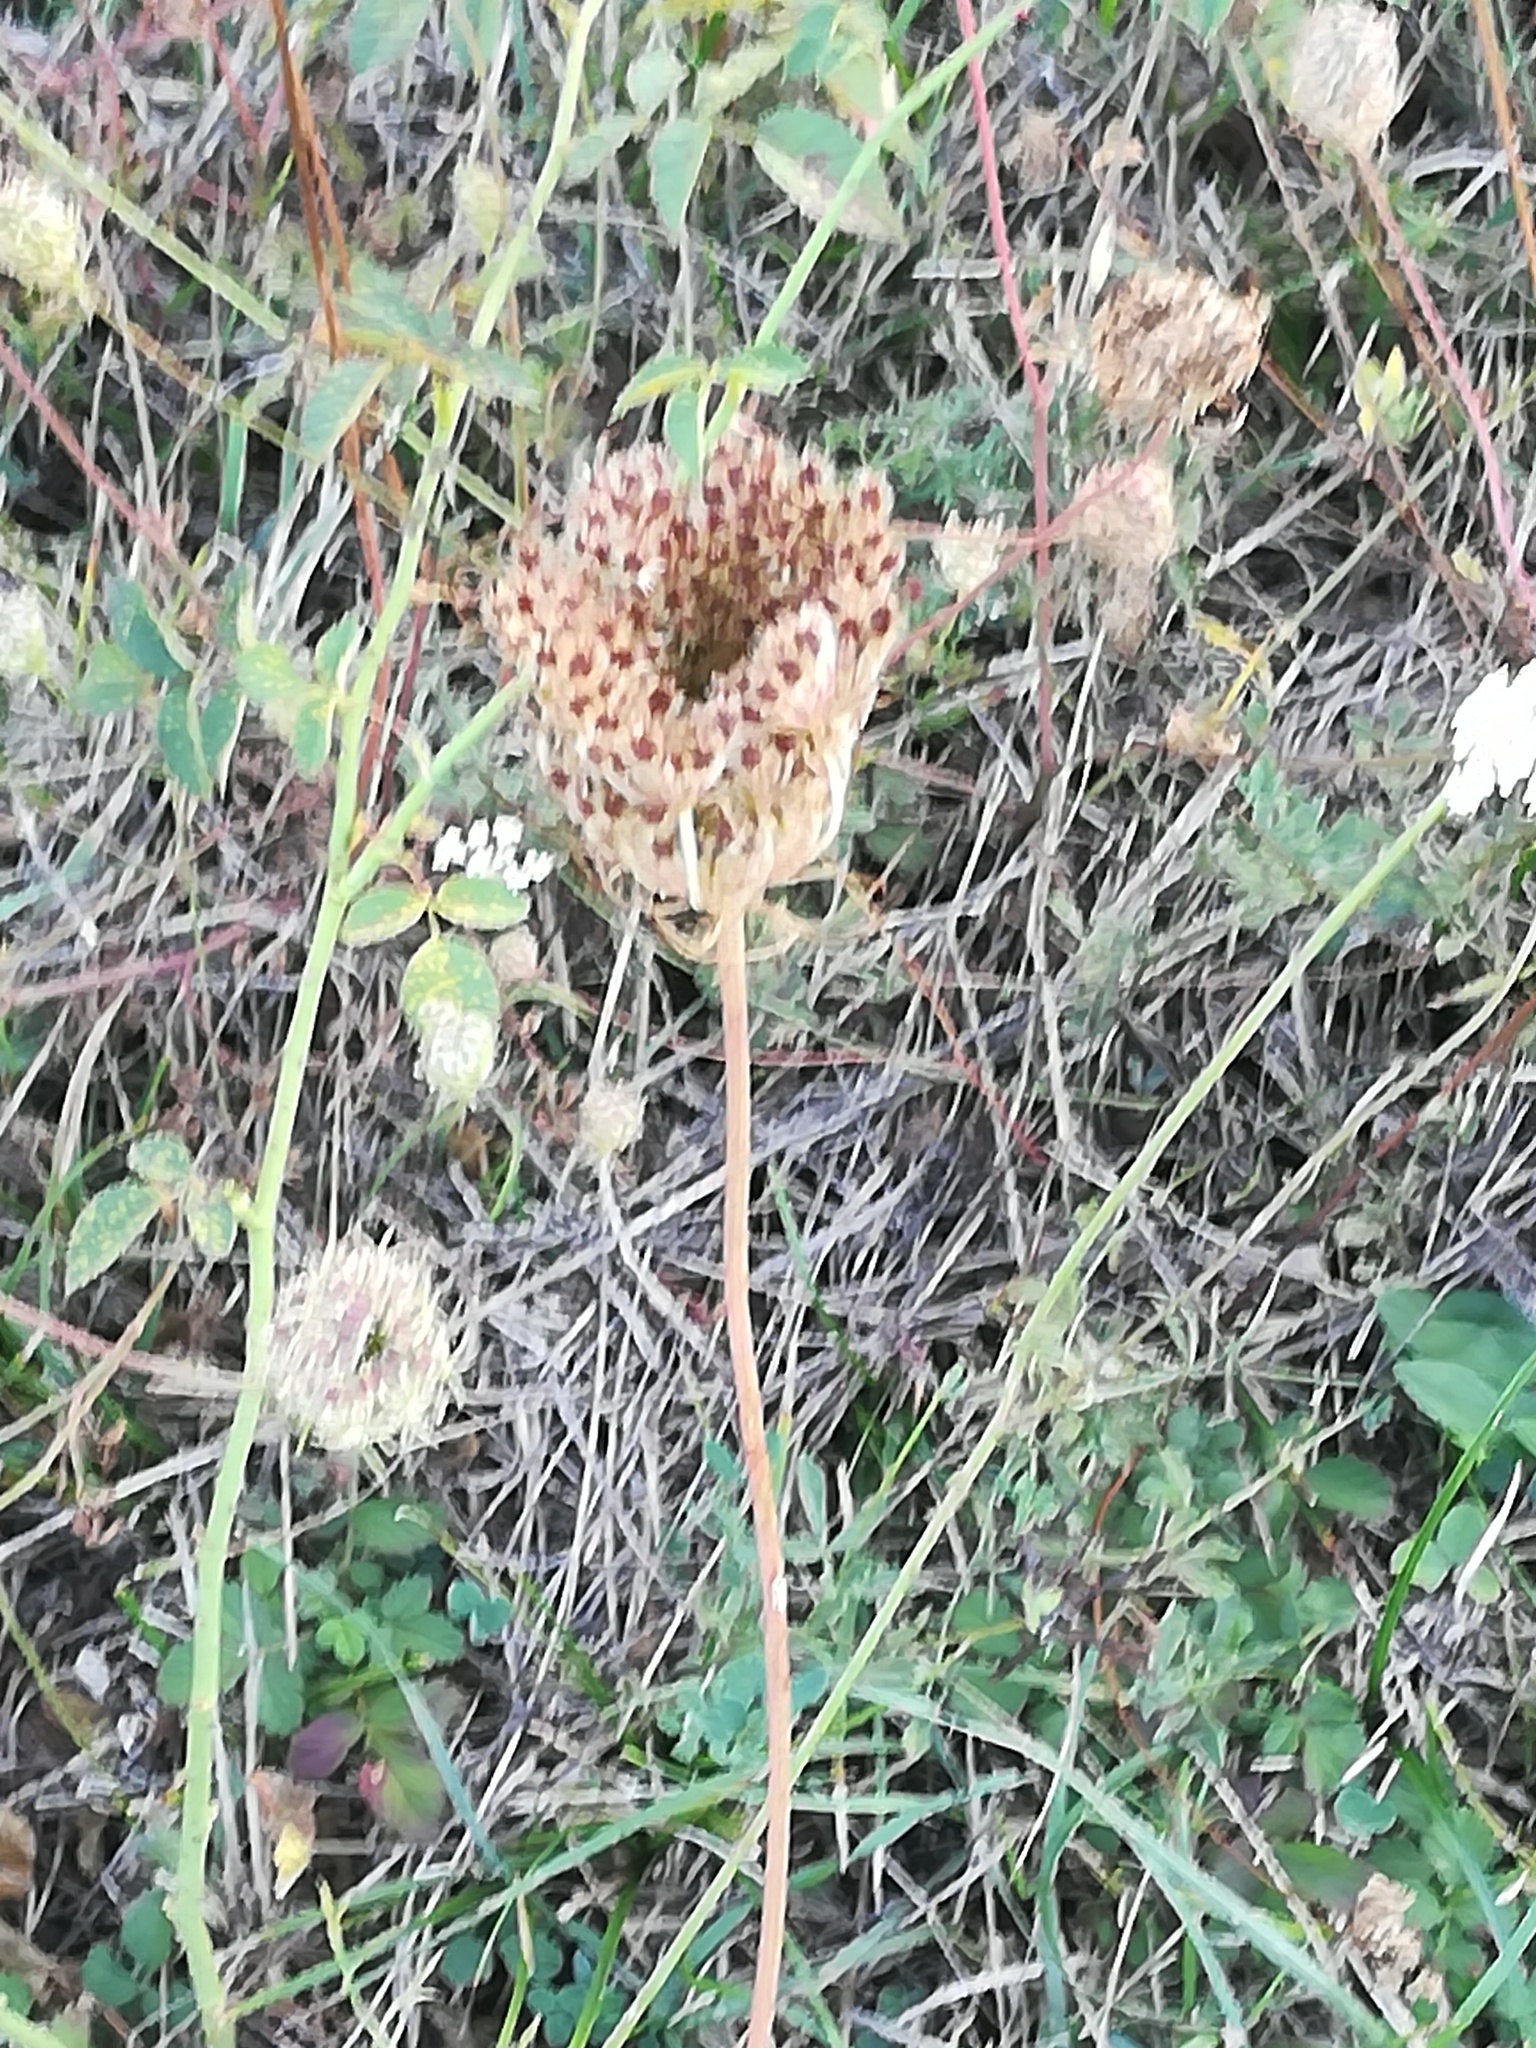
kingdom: Plantae
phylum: Tracheophyta
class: Magnoliopsida
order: Apiales
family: Apiaceae
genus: Daucus
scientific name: Daucus carota
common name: Wild carrot
